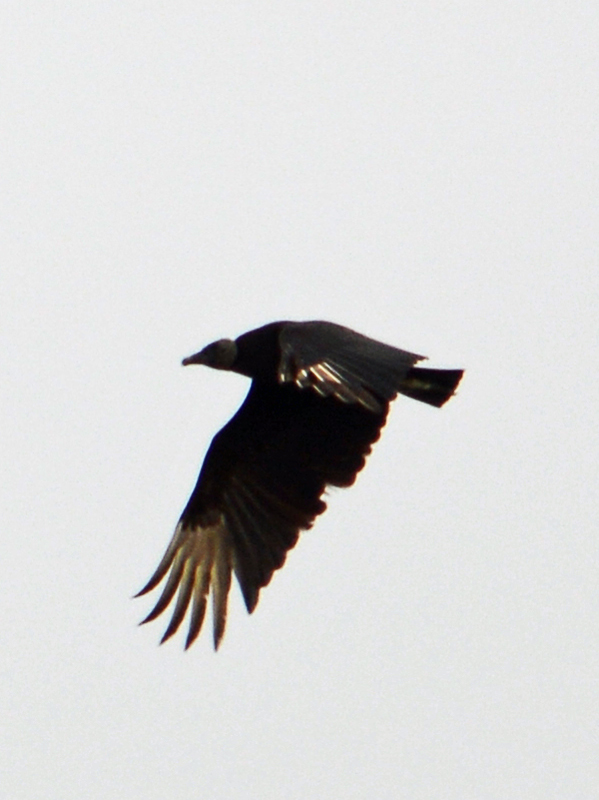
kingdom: Animalia
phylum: Chordata
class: Aves
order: Accipitriformes
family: Cathartidae
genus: Coragyps
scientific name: Coragyps atratus
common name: Black vulture
